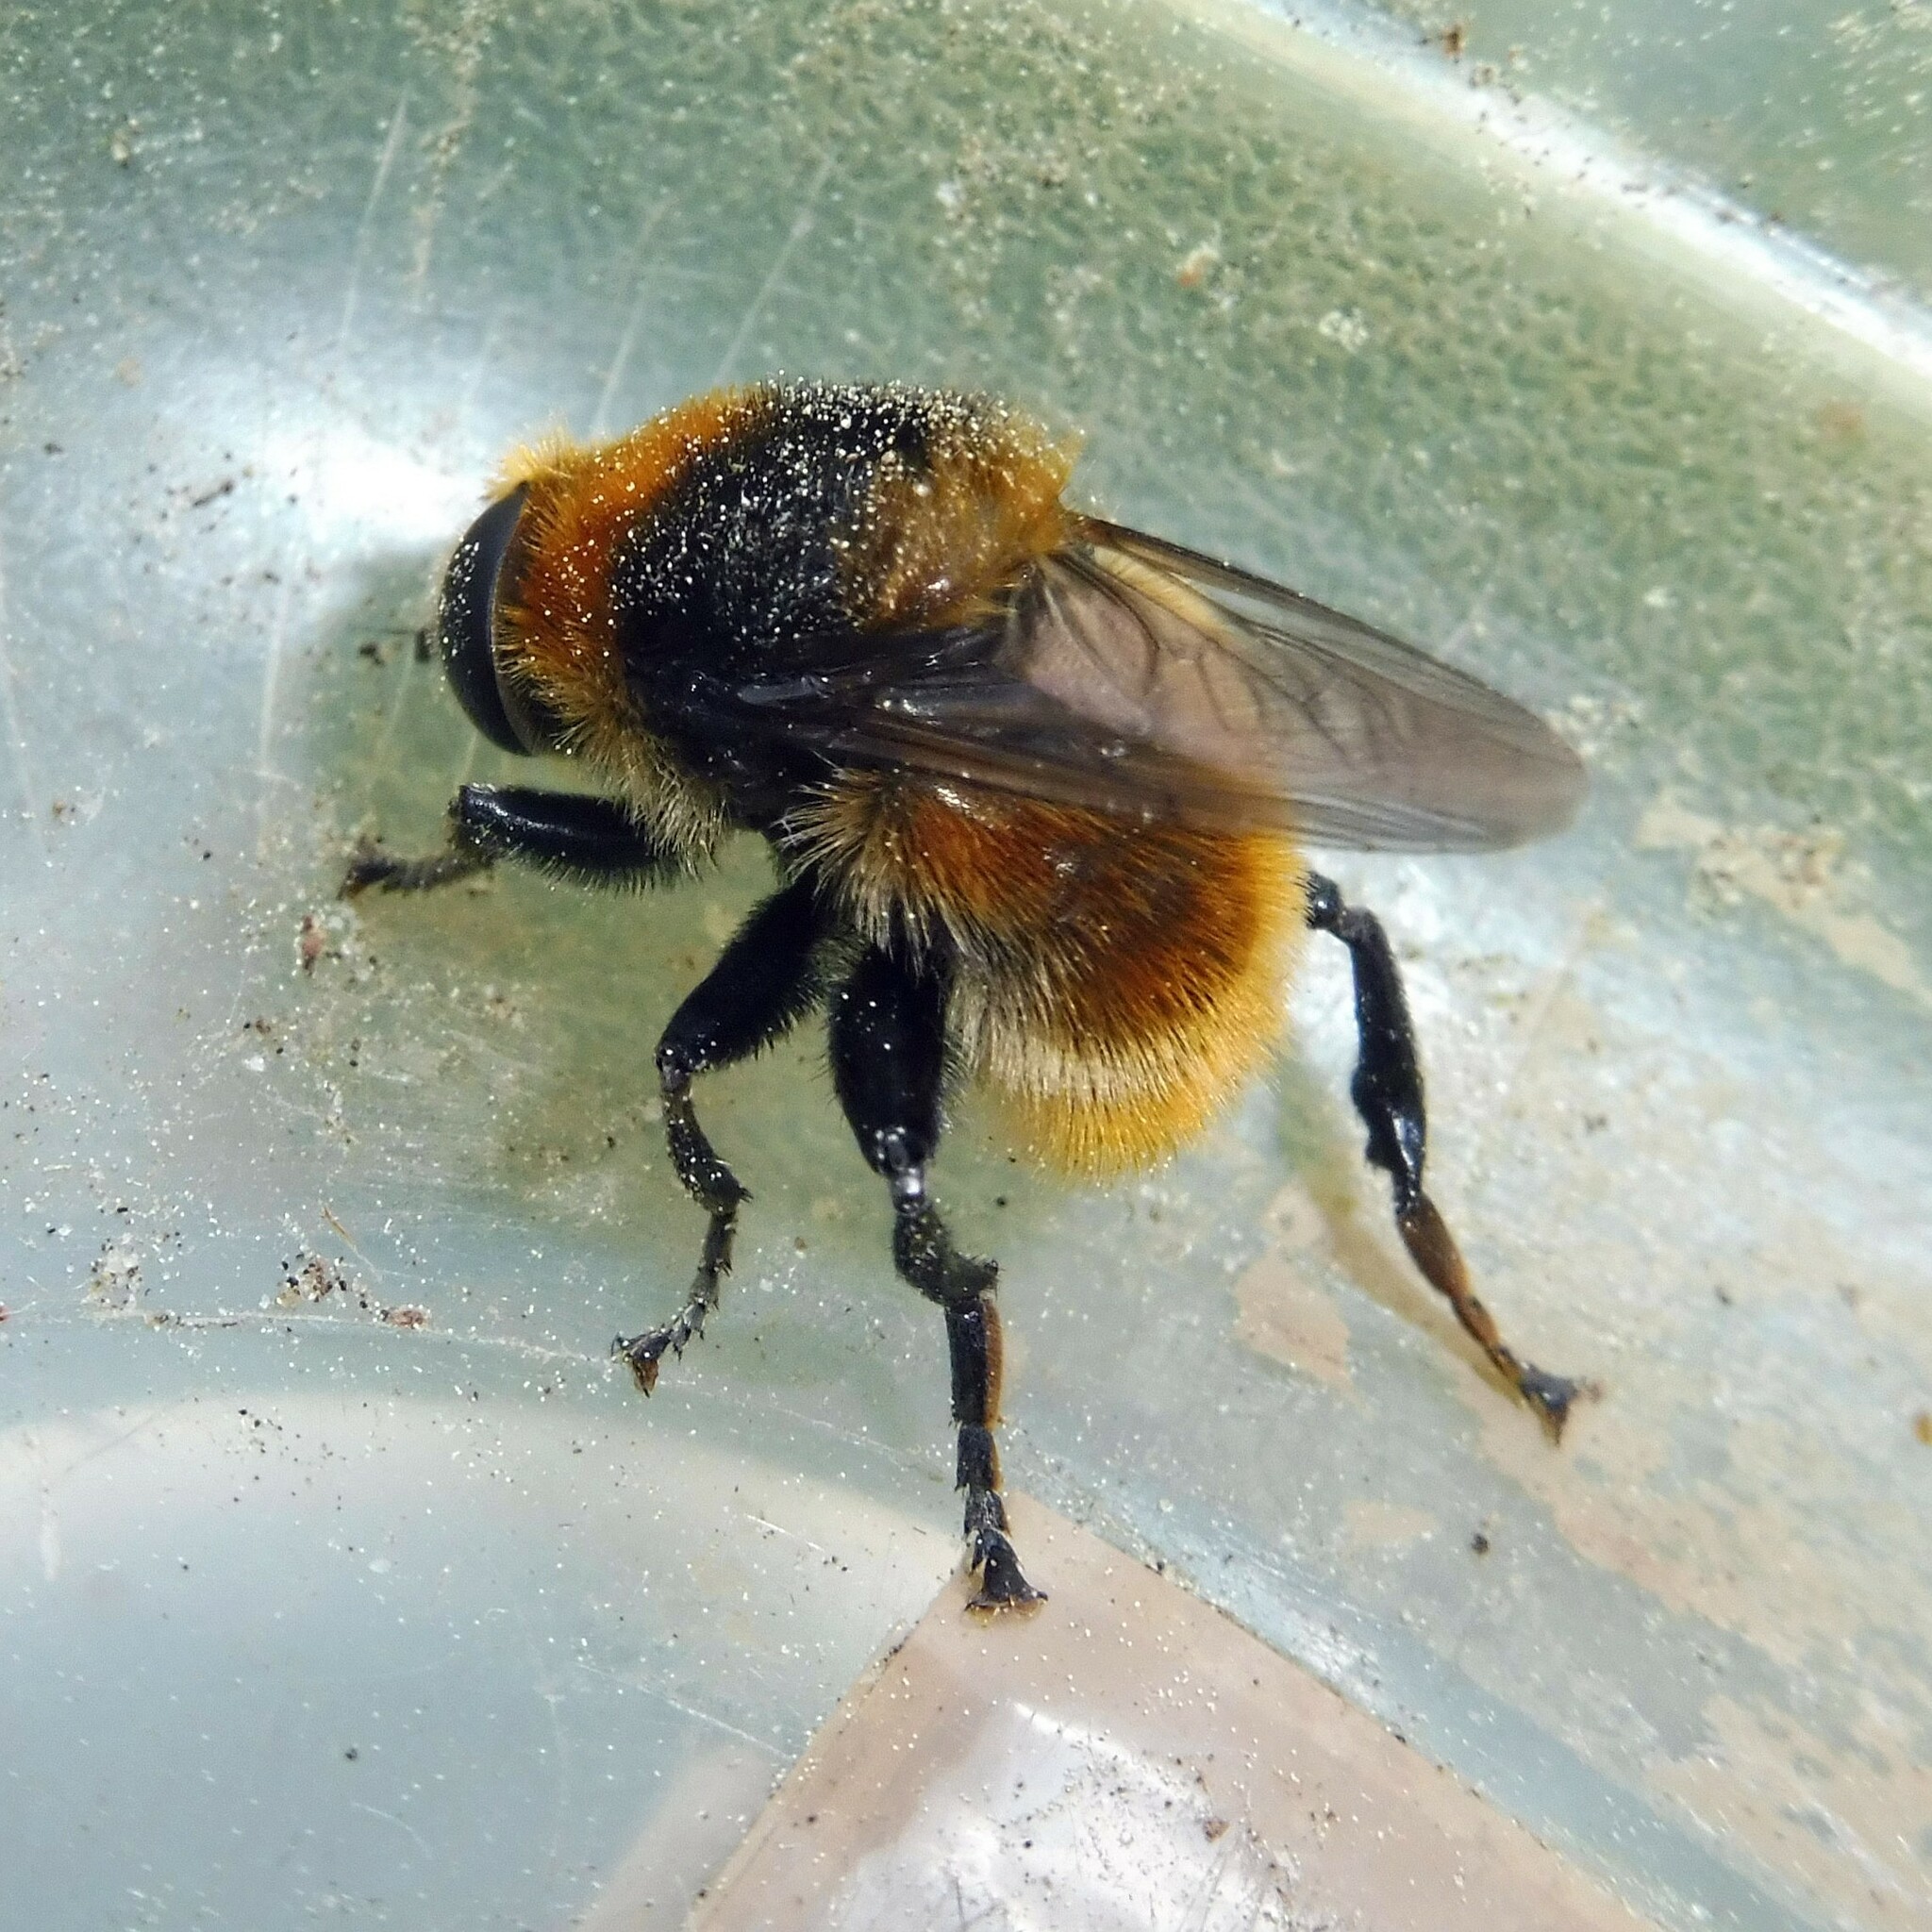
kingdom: Animalia
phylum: Arthropoda
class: Insecta
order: Diptera
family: Syrphidae
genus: Merodon
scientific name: Merodon equestris
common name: Greater bulb-fly
